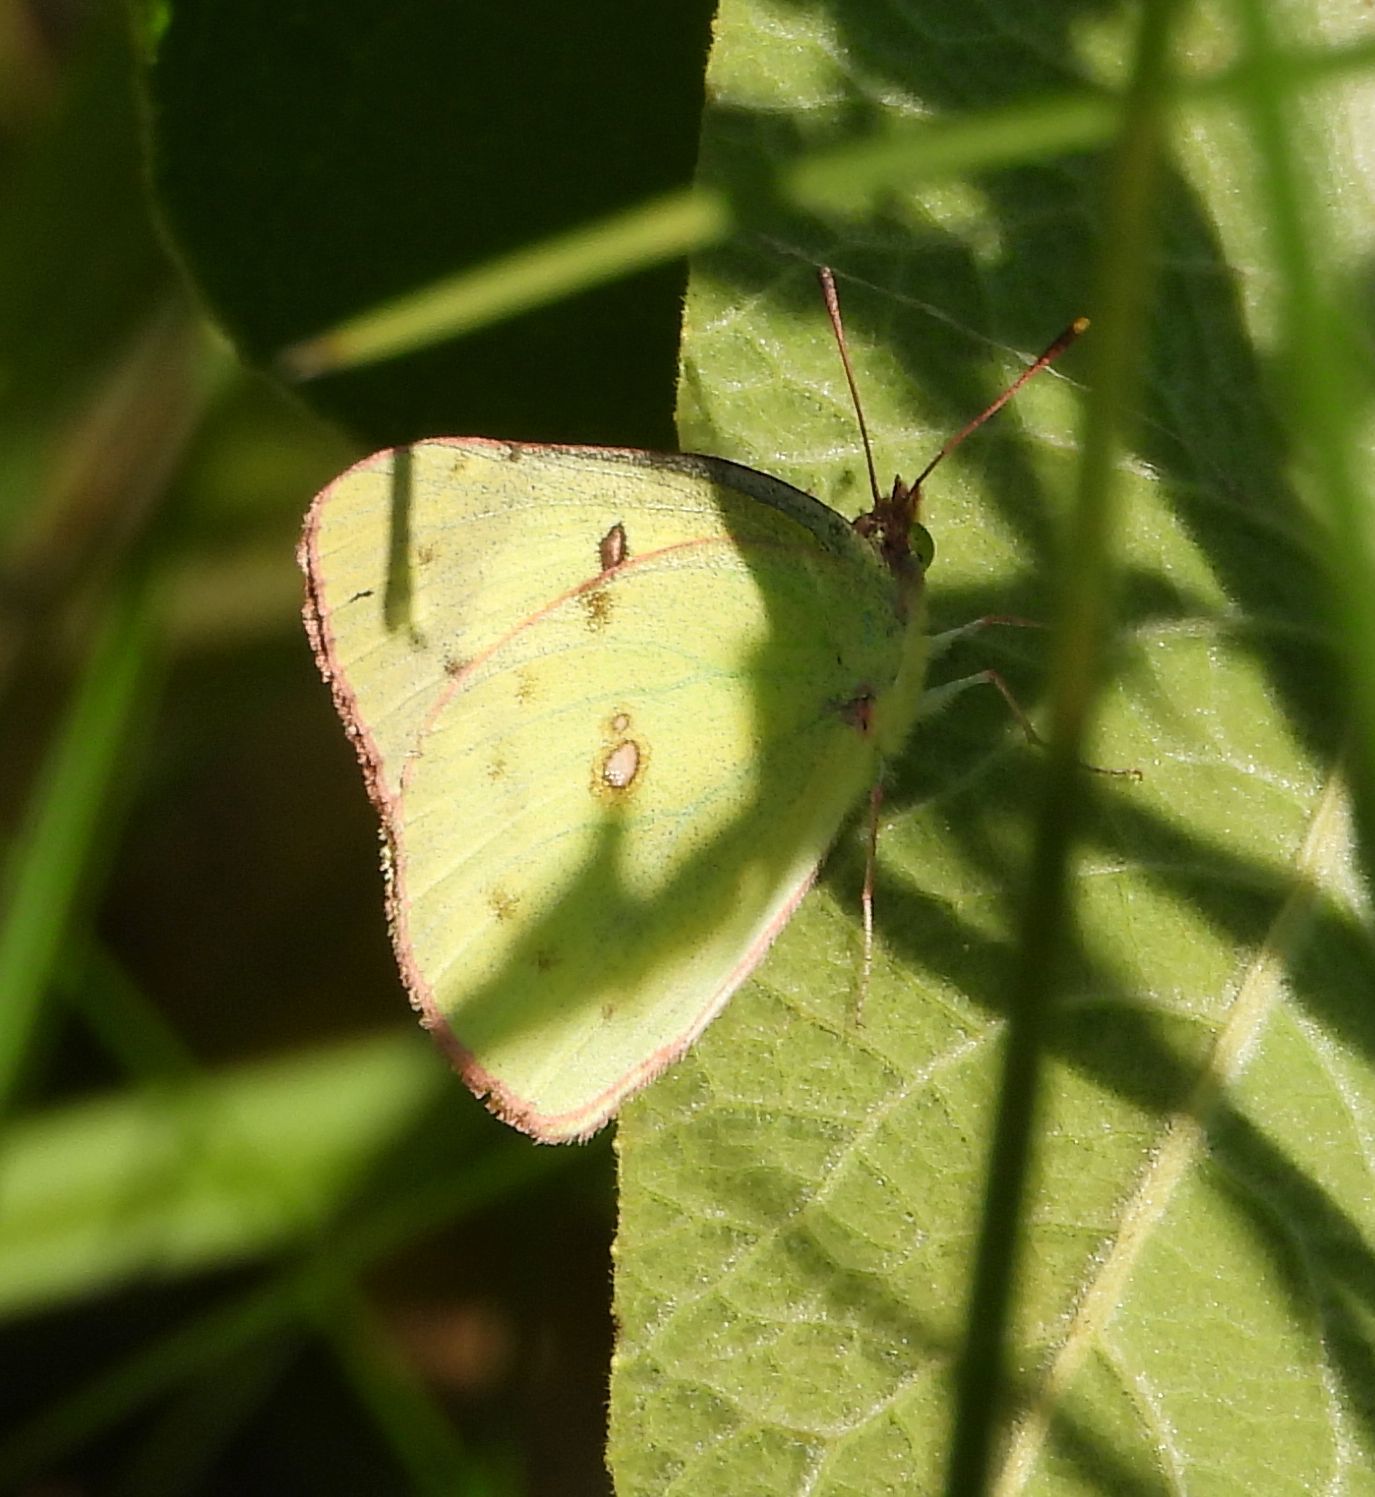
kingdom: Animalia
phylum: Arthropoda
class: Insecta
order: Lepidoptera
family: Pieridae
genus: Colias
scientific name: Colias philodice
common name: Clouded sulphur
